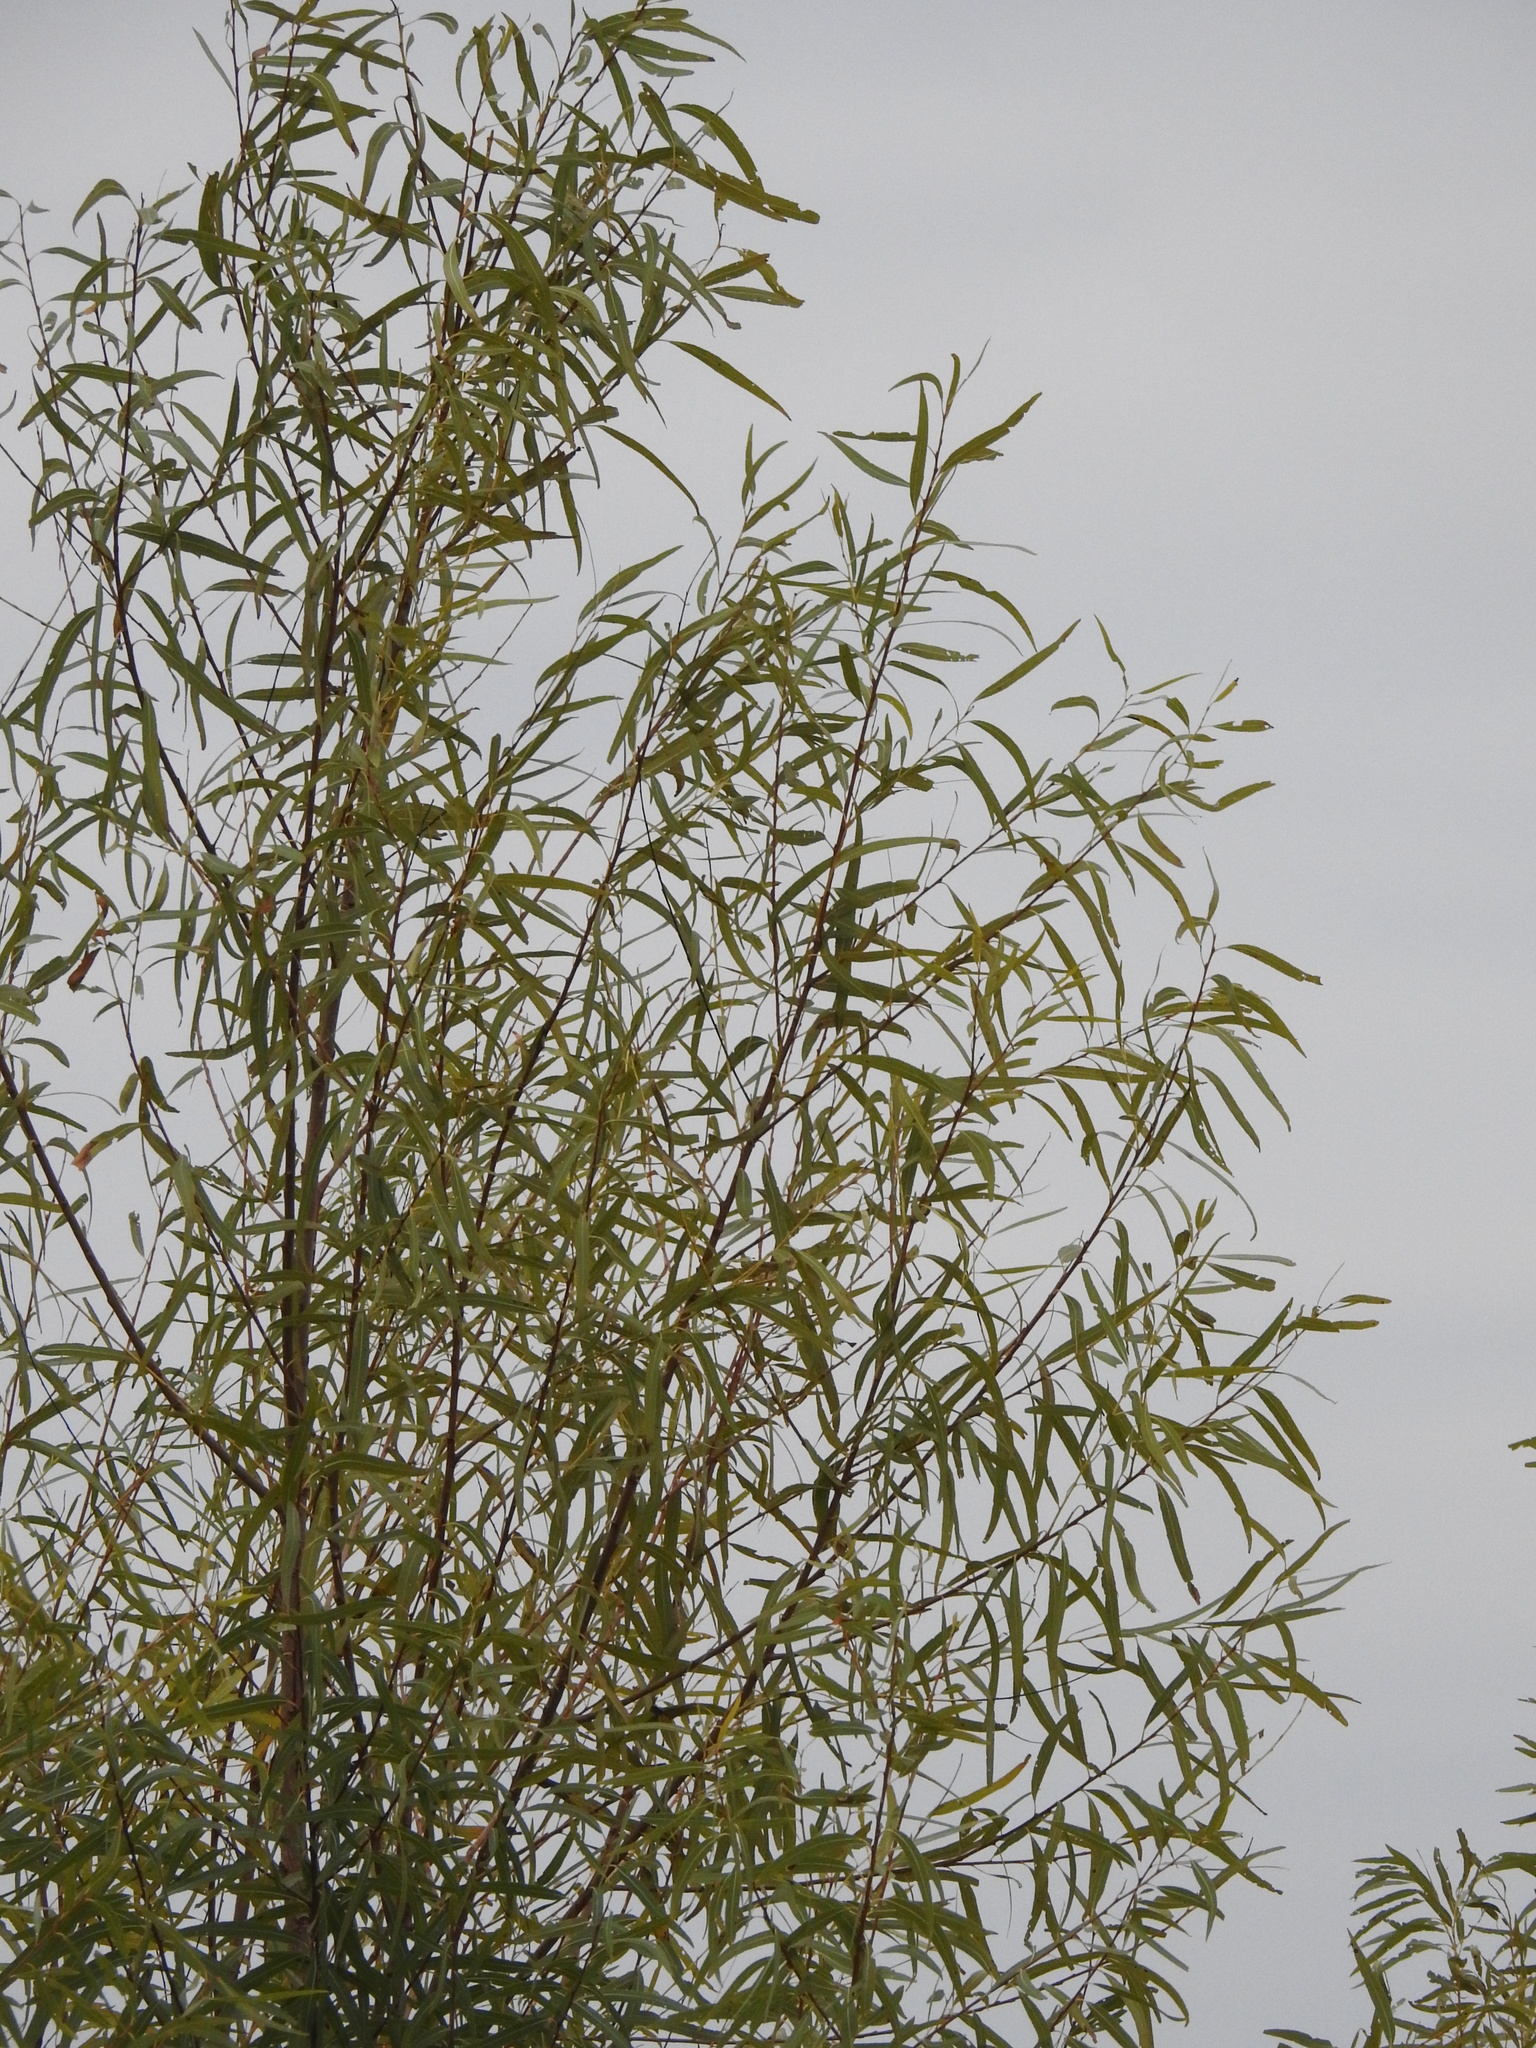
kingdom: Plantae
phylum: Tracheophyta
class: Magnoliopsida
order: Malpighiales
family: Salicaceae
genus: Salix
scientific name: Salix nigra
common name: Black willow
